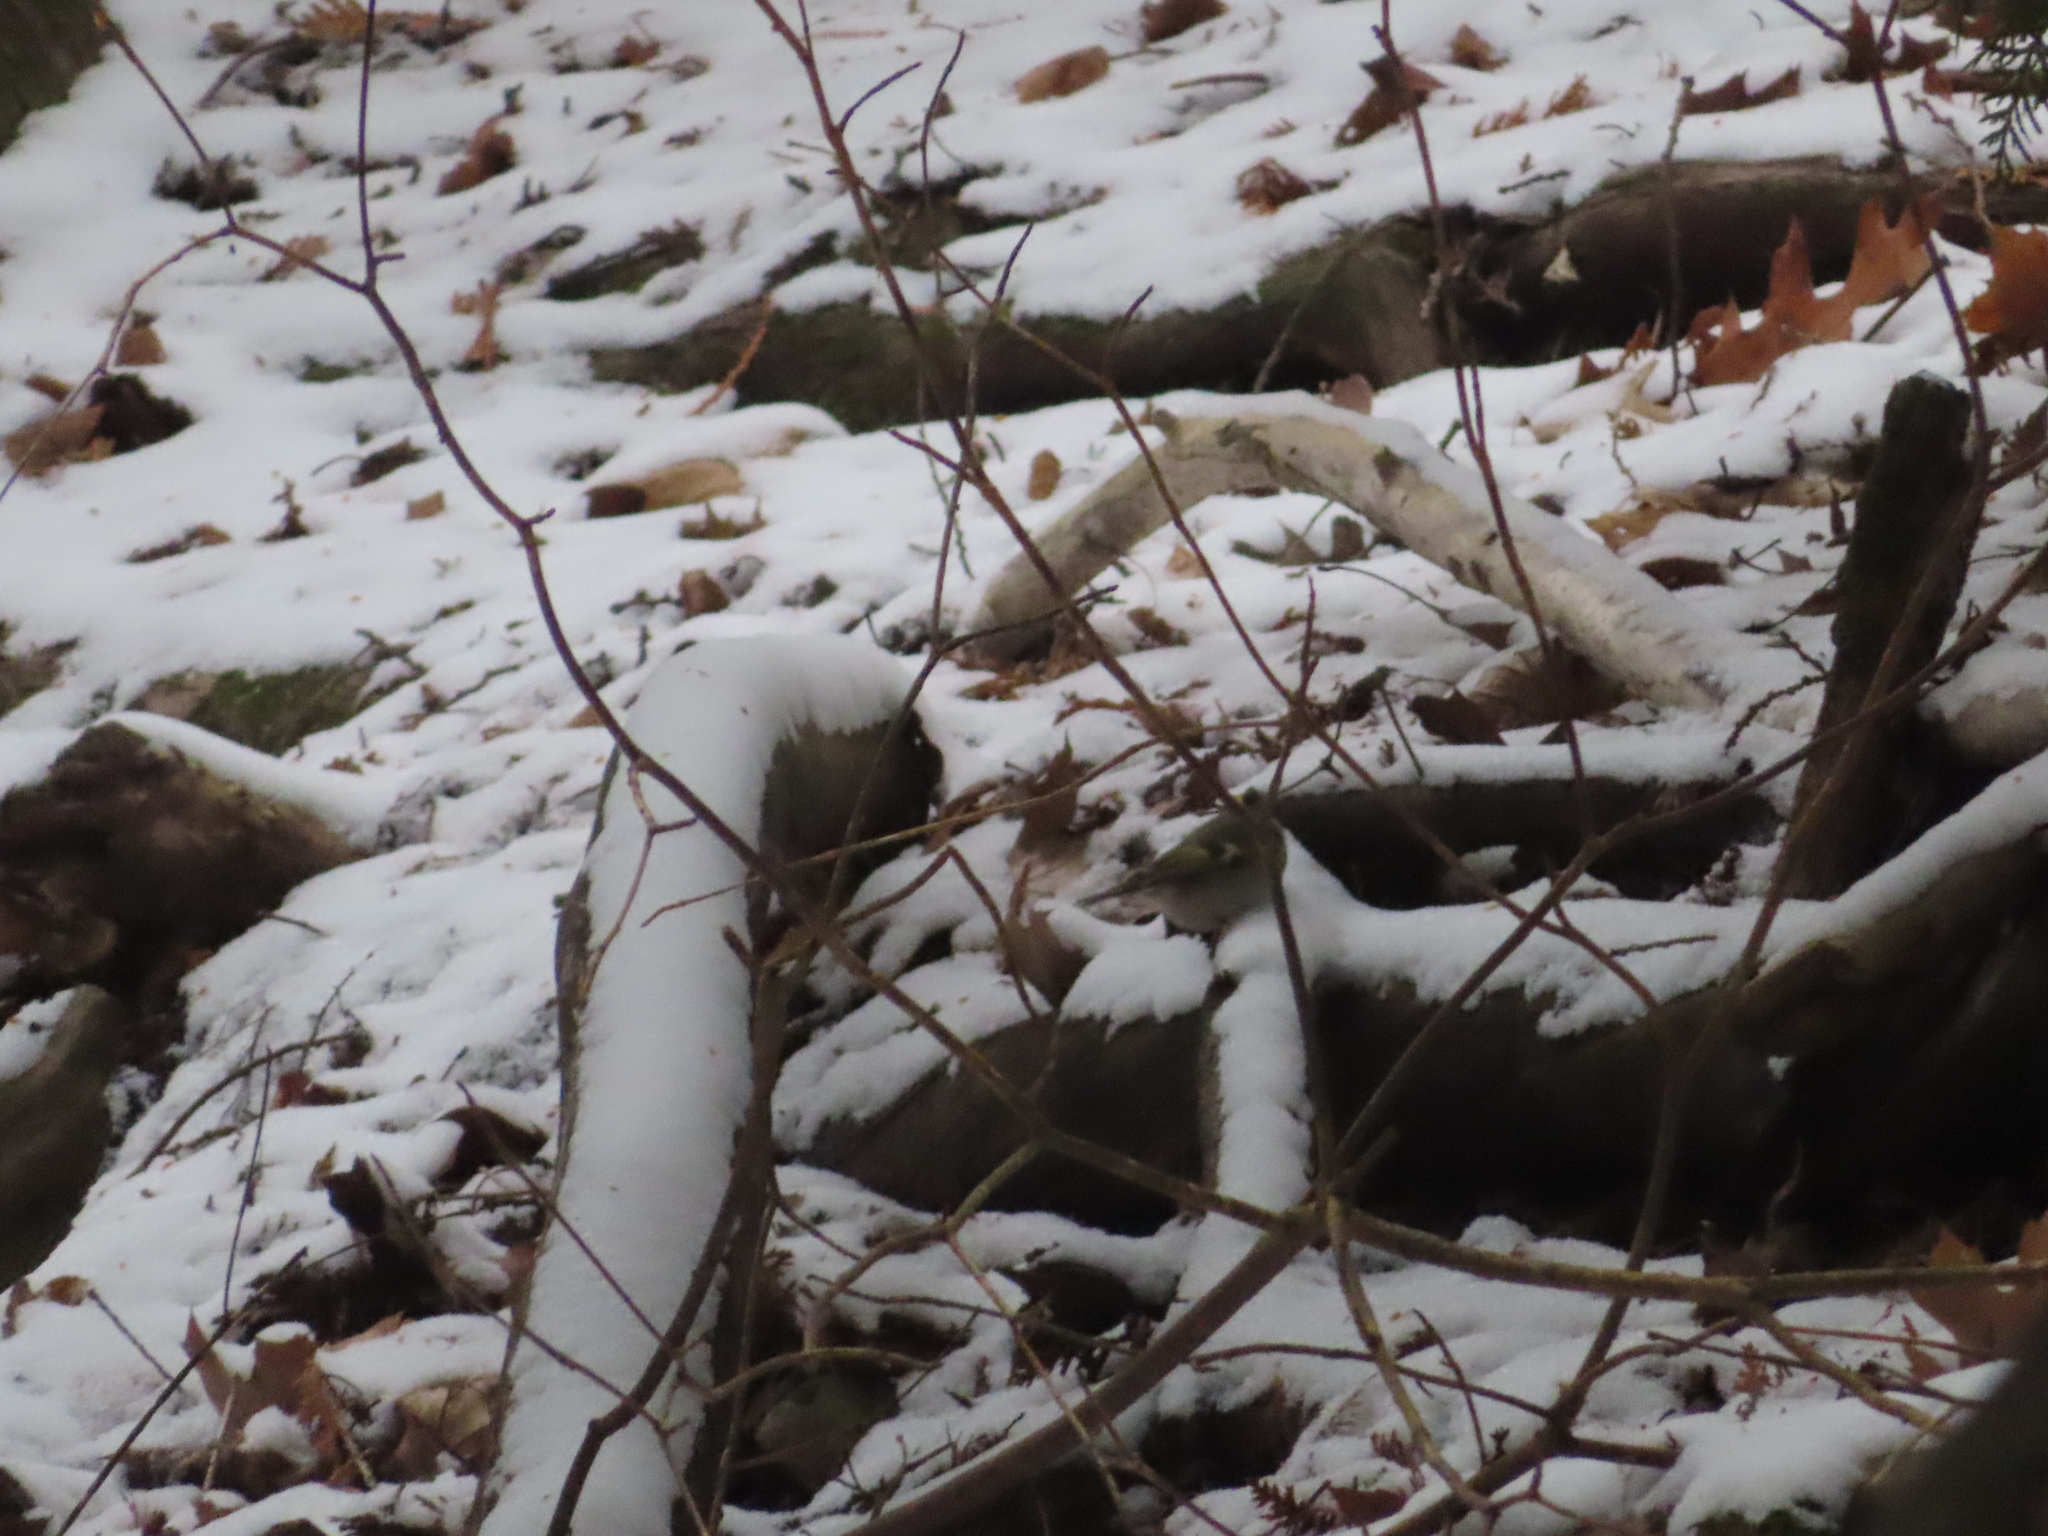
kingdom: Animalia
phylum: Chordata
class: Aves
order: Passeriformes
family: Regulidae
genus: Regulus
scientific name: Regulus satrapa
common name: Golden-crowned kinglet
